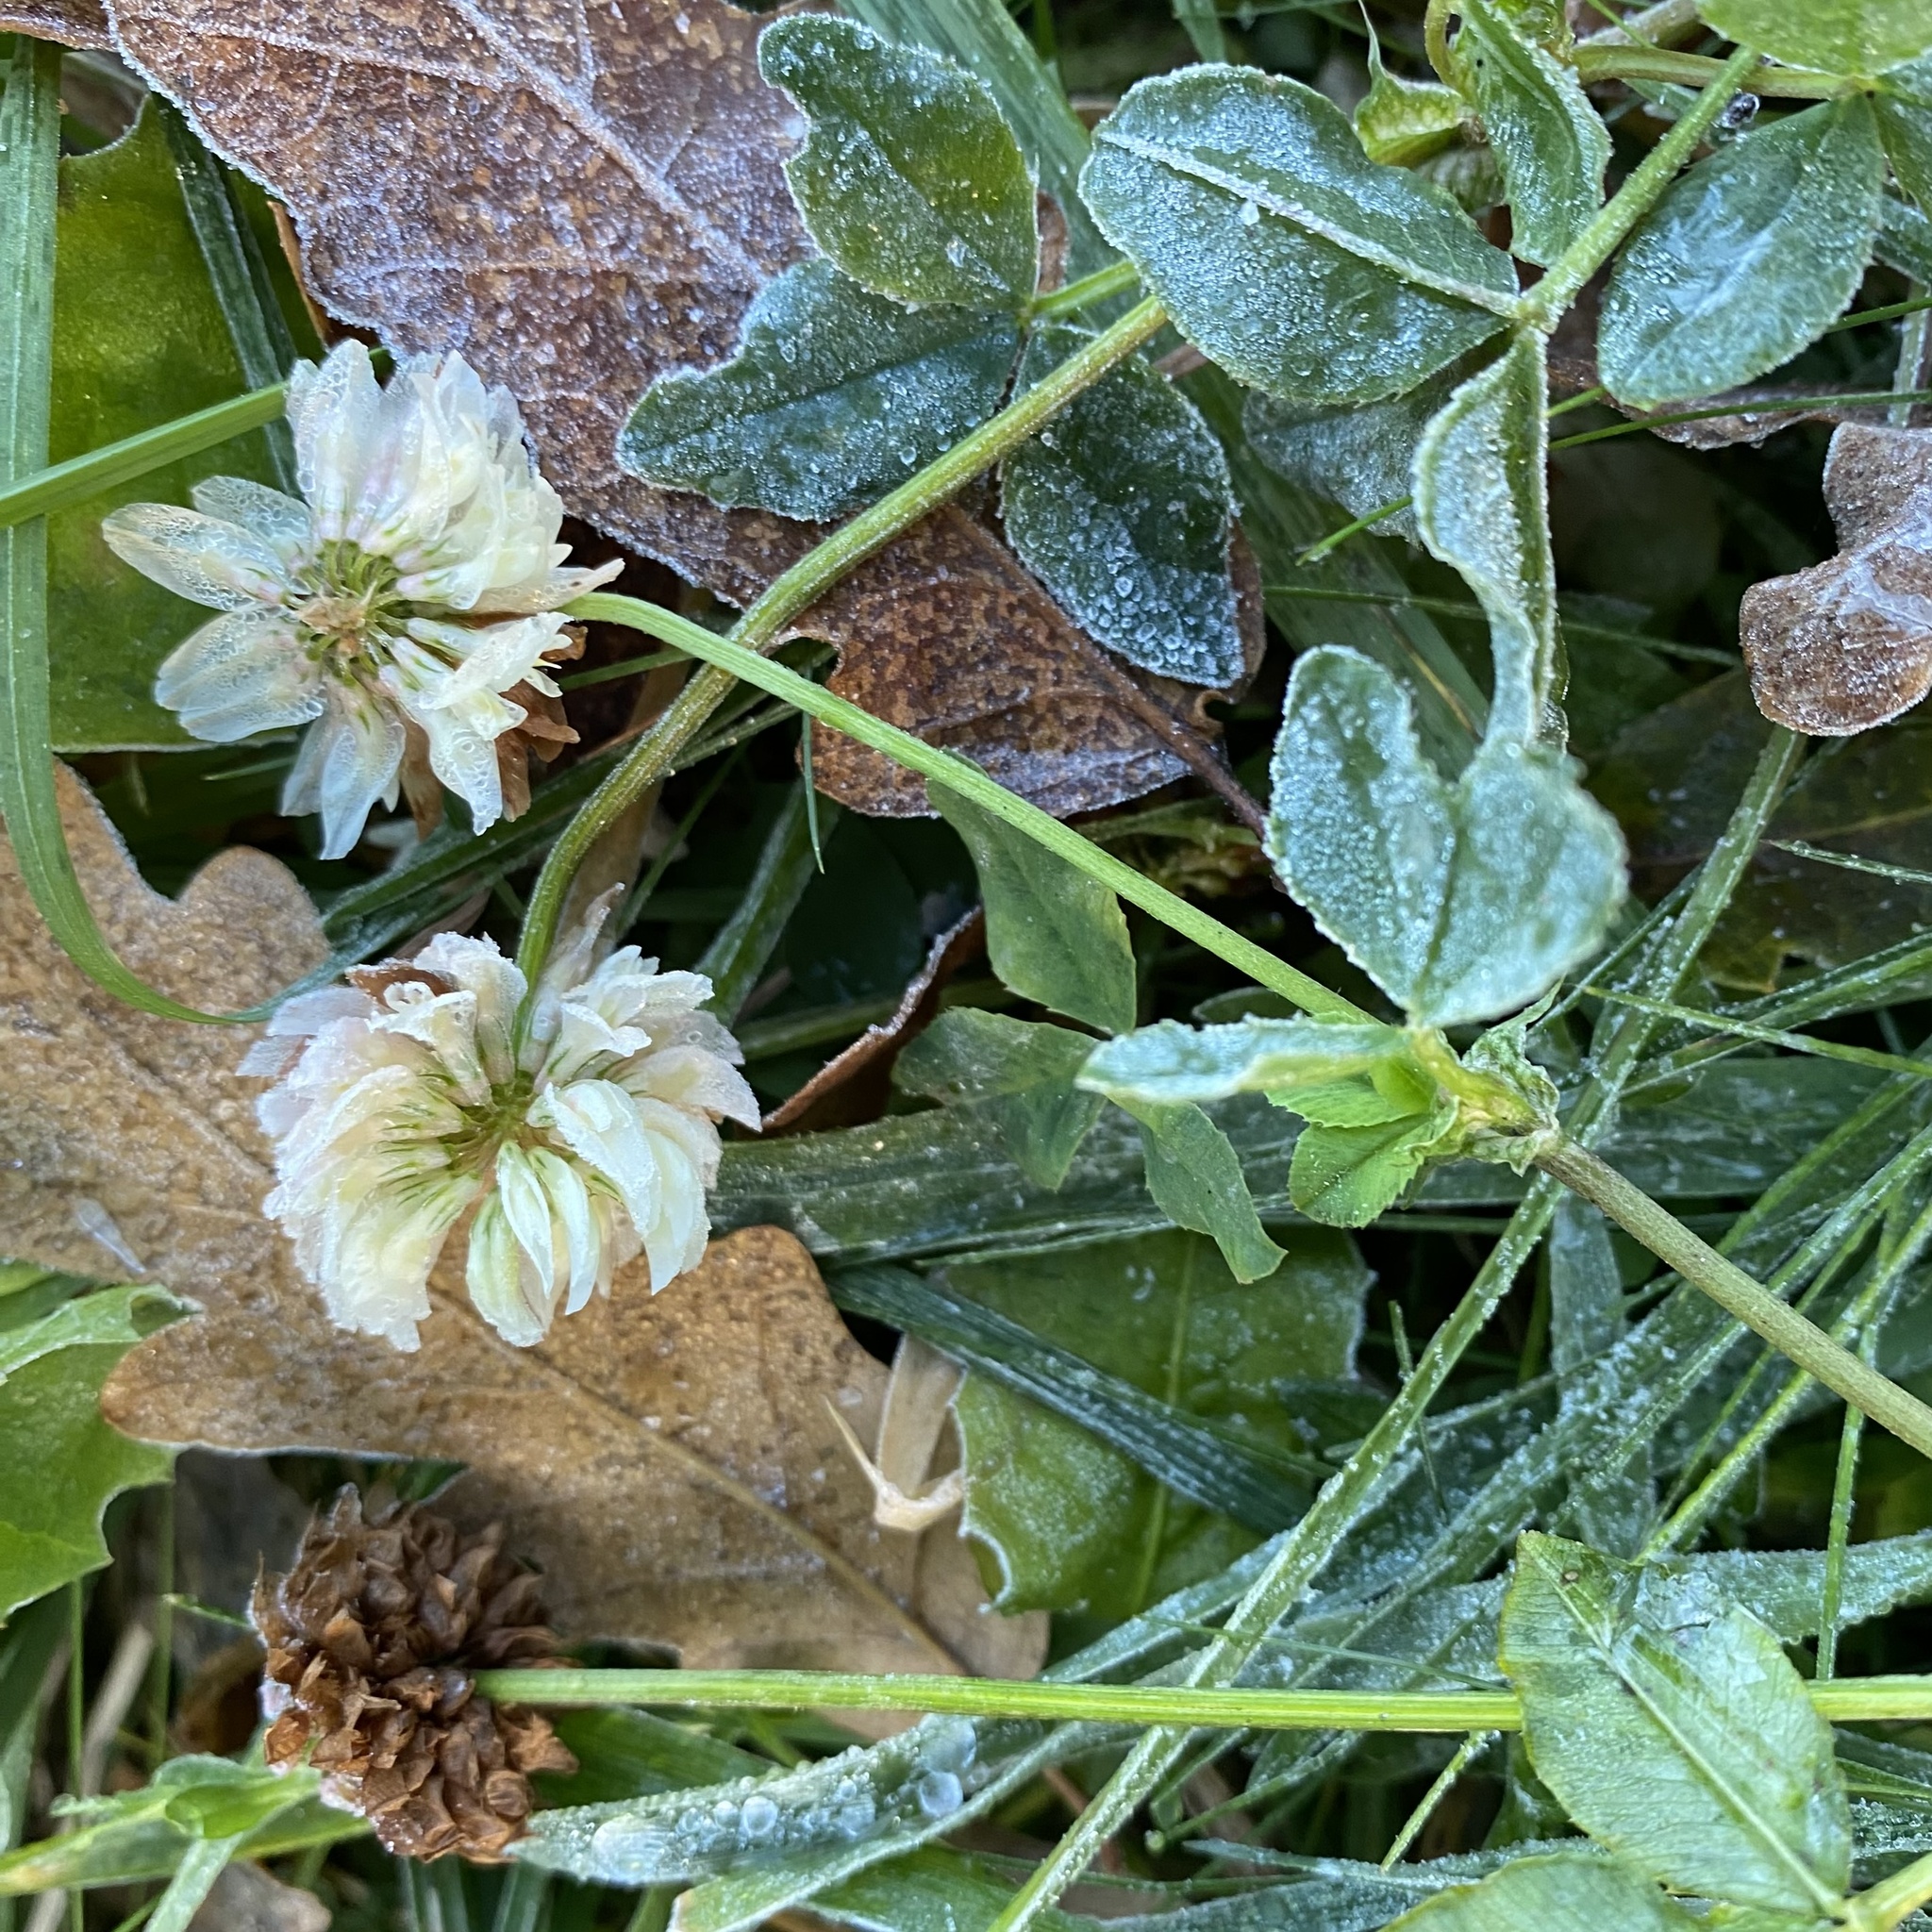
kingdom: Plantae
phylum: Tracheophyta
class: Magnoliopsida
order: Fabales
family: Fabaceae
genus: Trifolium
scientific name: Trifolium repens
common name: White clover
